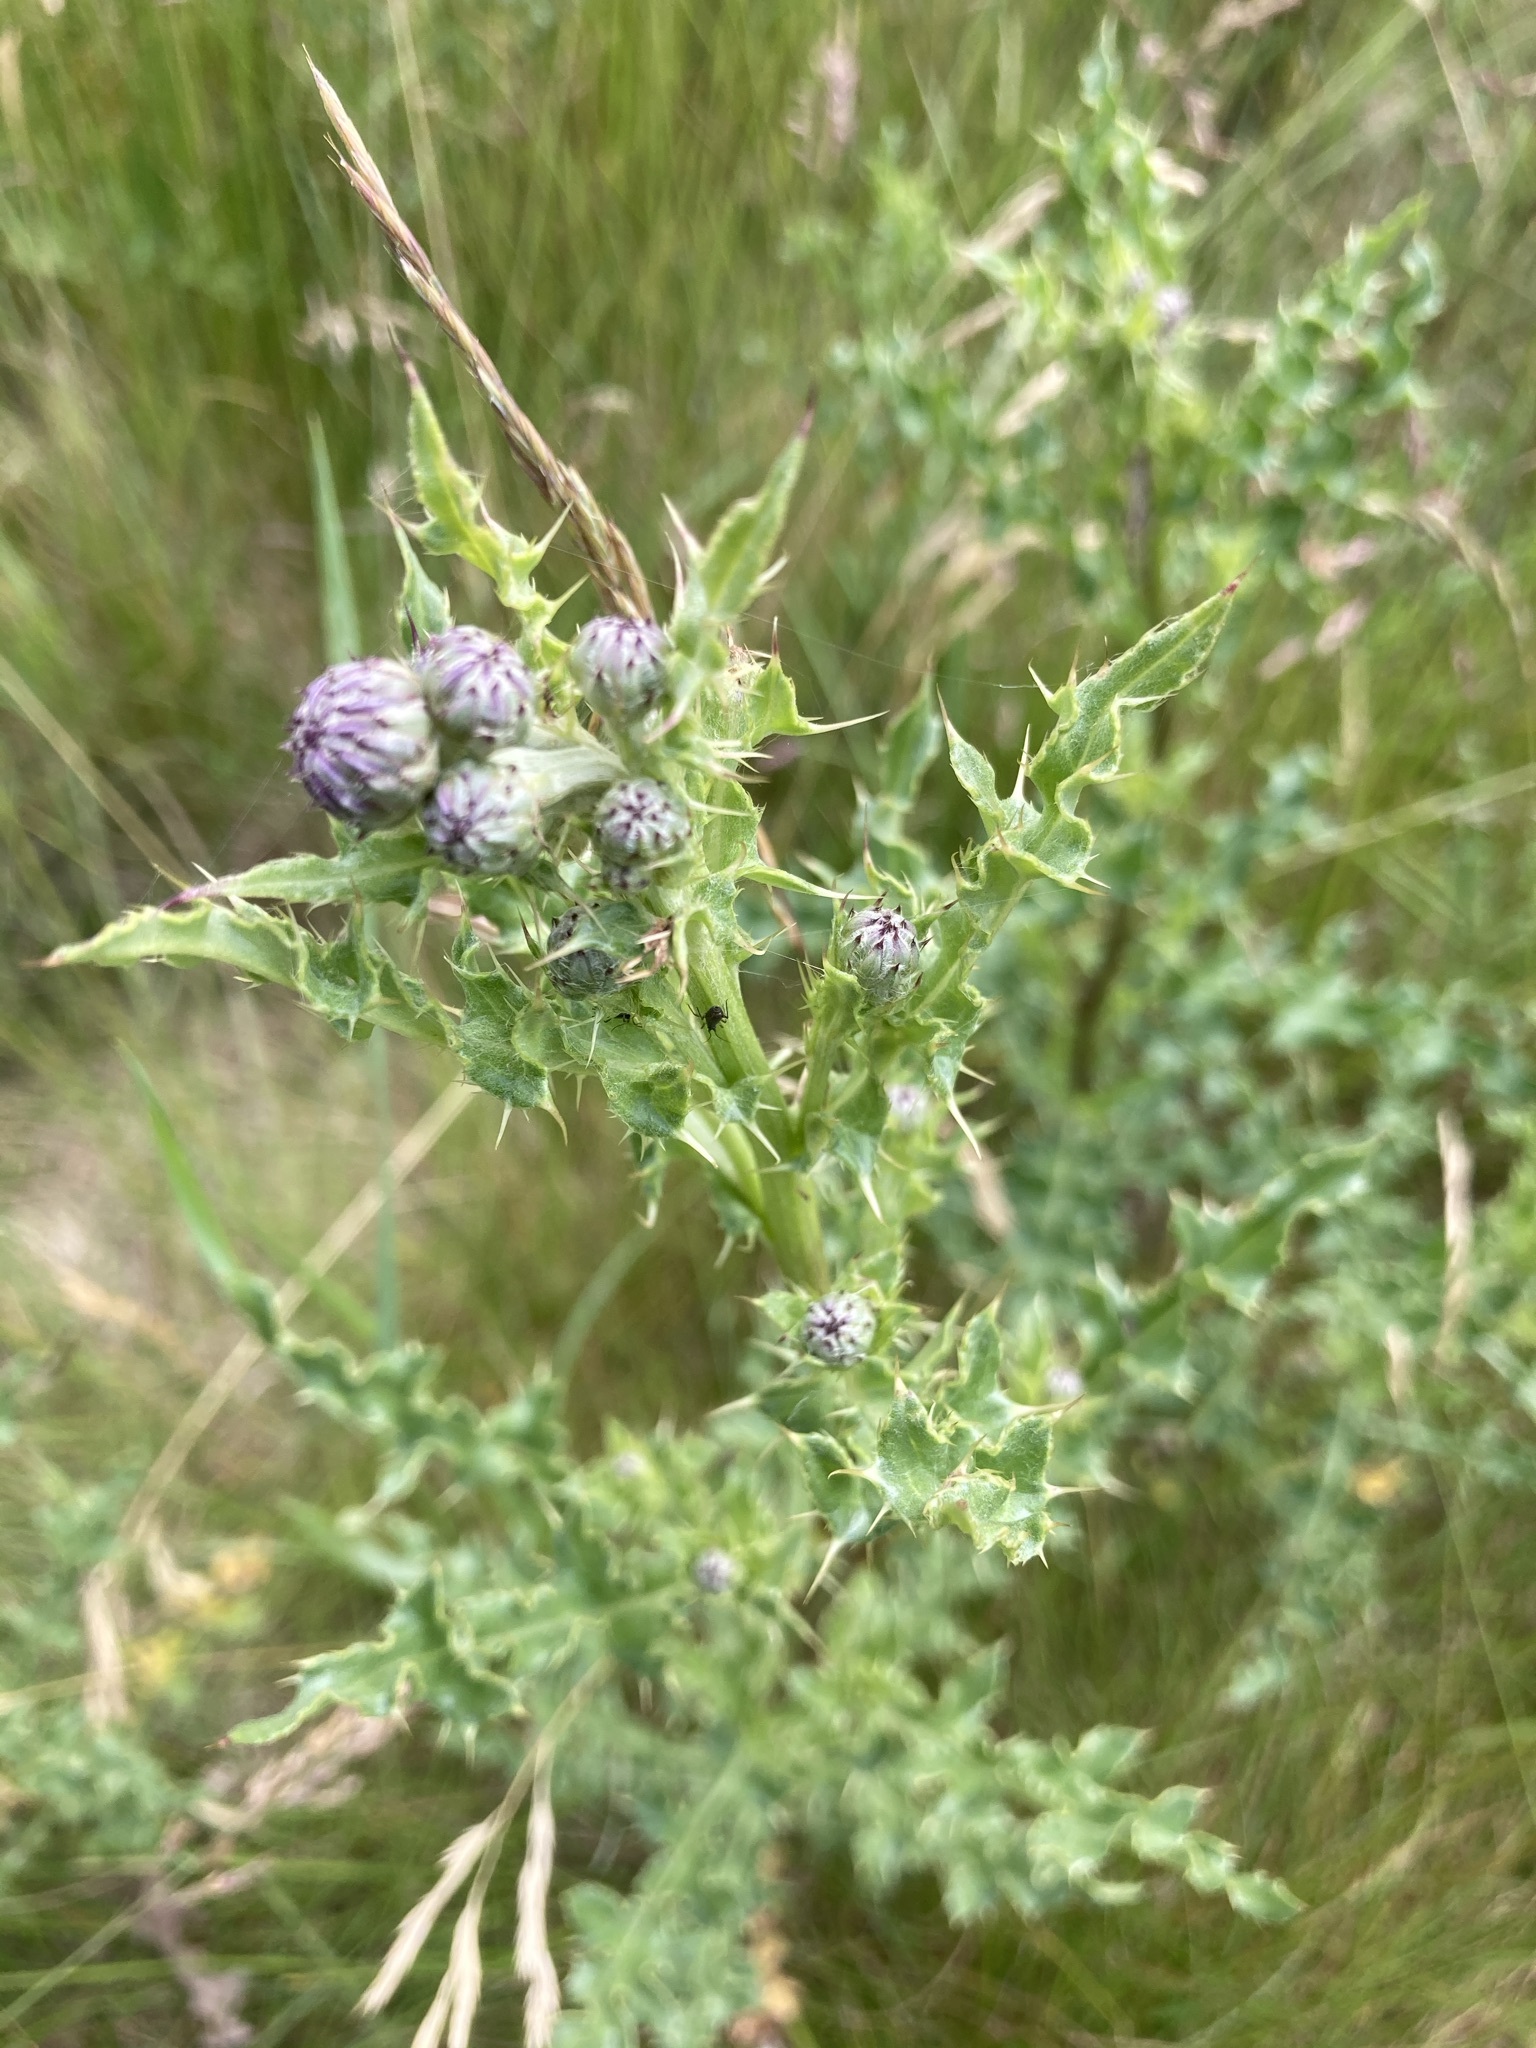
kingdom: Plantae
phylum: Tracheophyta
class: Magnoliopsida
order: Asterales
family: Asteraceae
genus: Cirsium
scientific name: Cirsium arvense
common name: Creeping thistle
